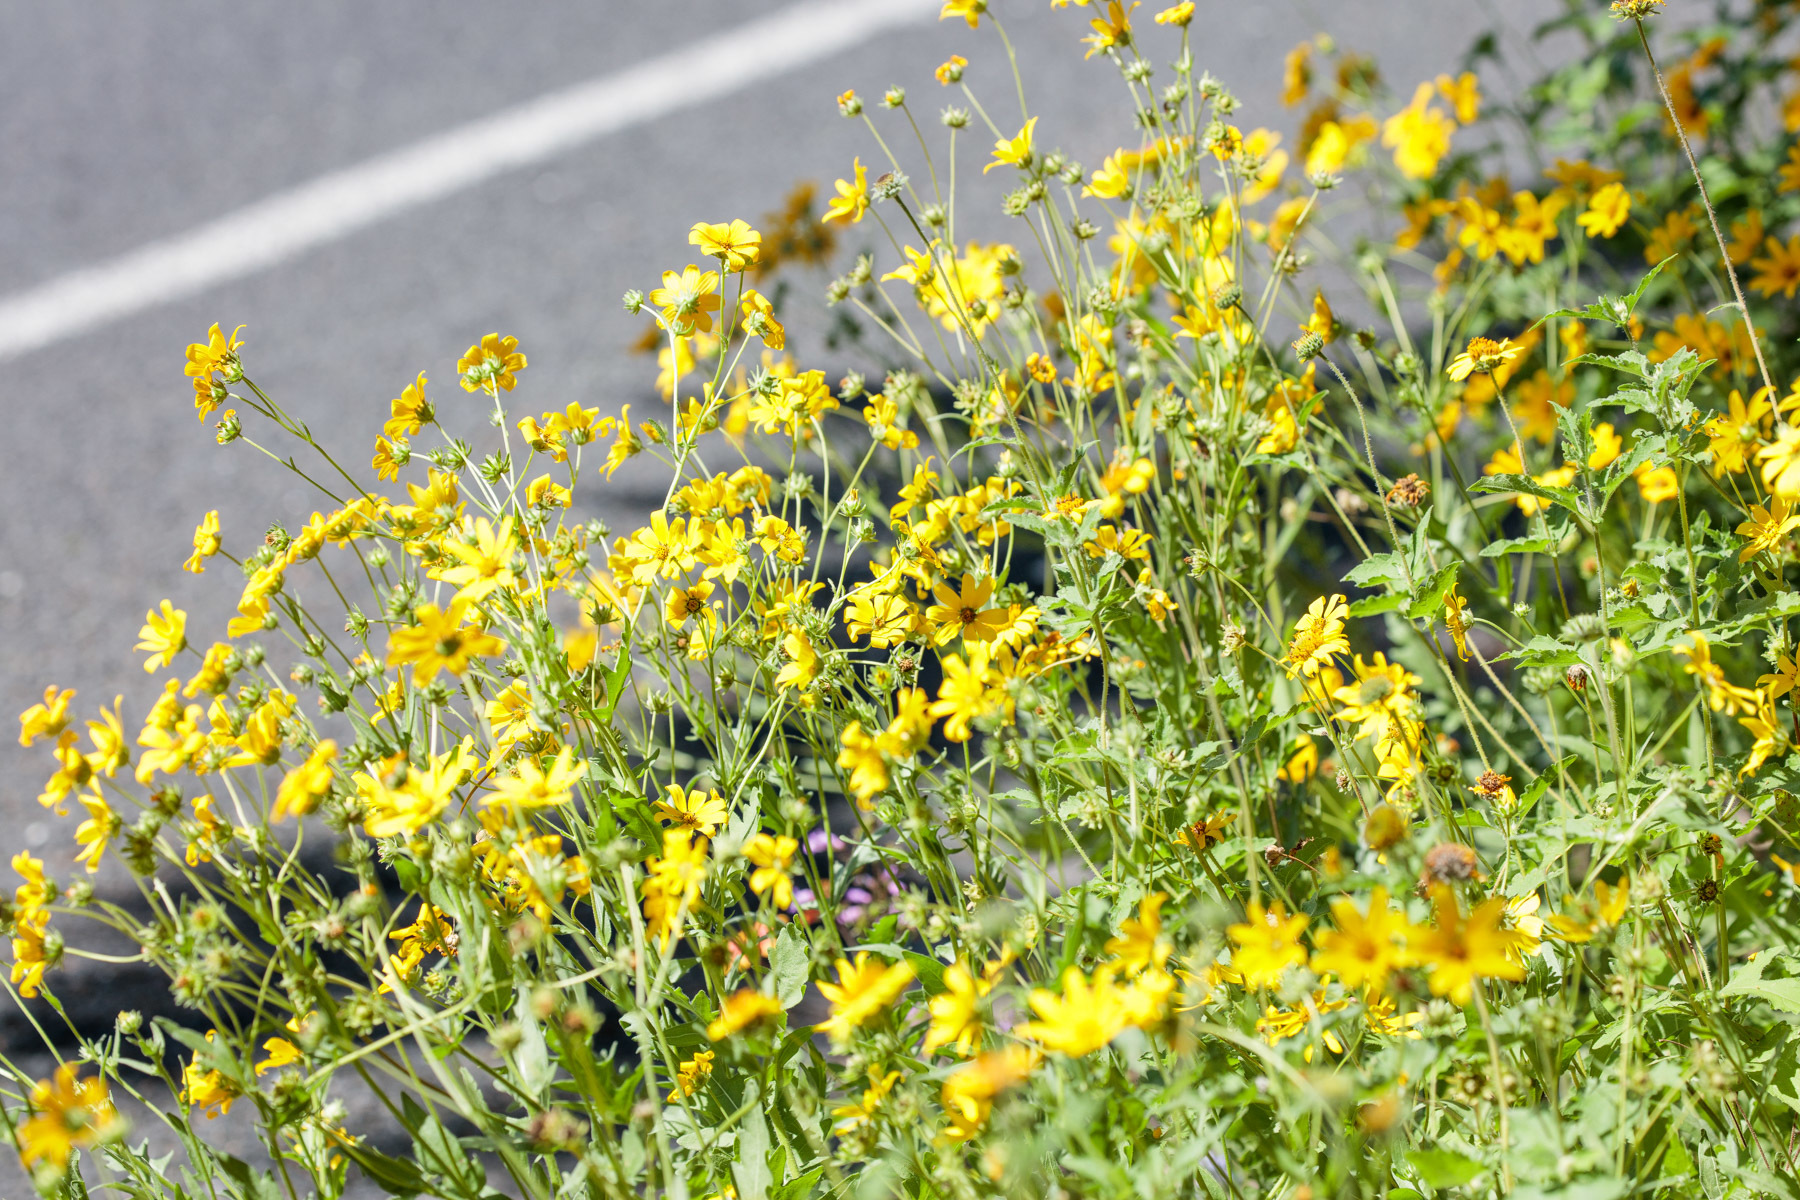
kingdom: Plantae
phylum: Tracheophyta
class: Magnoliopsida
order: Asterales
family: Asteraceae
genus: Engelmannia
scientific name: Engelmannia peristenia
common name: Engelmann's daisy
